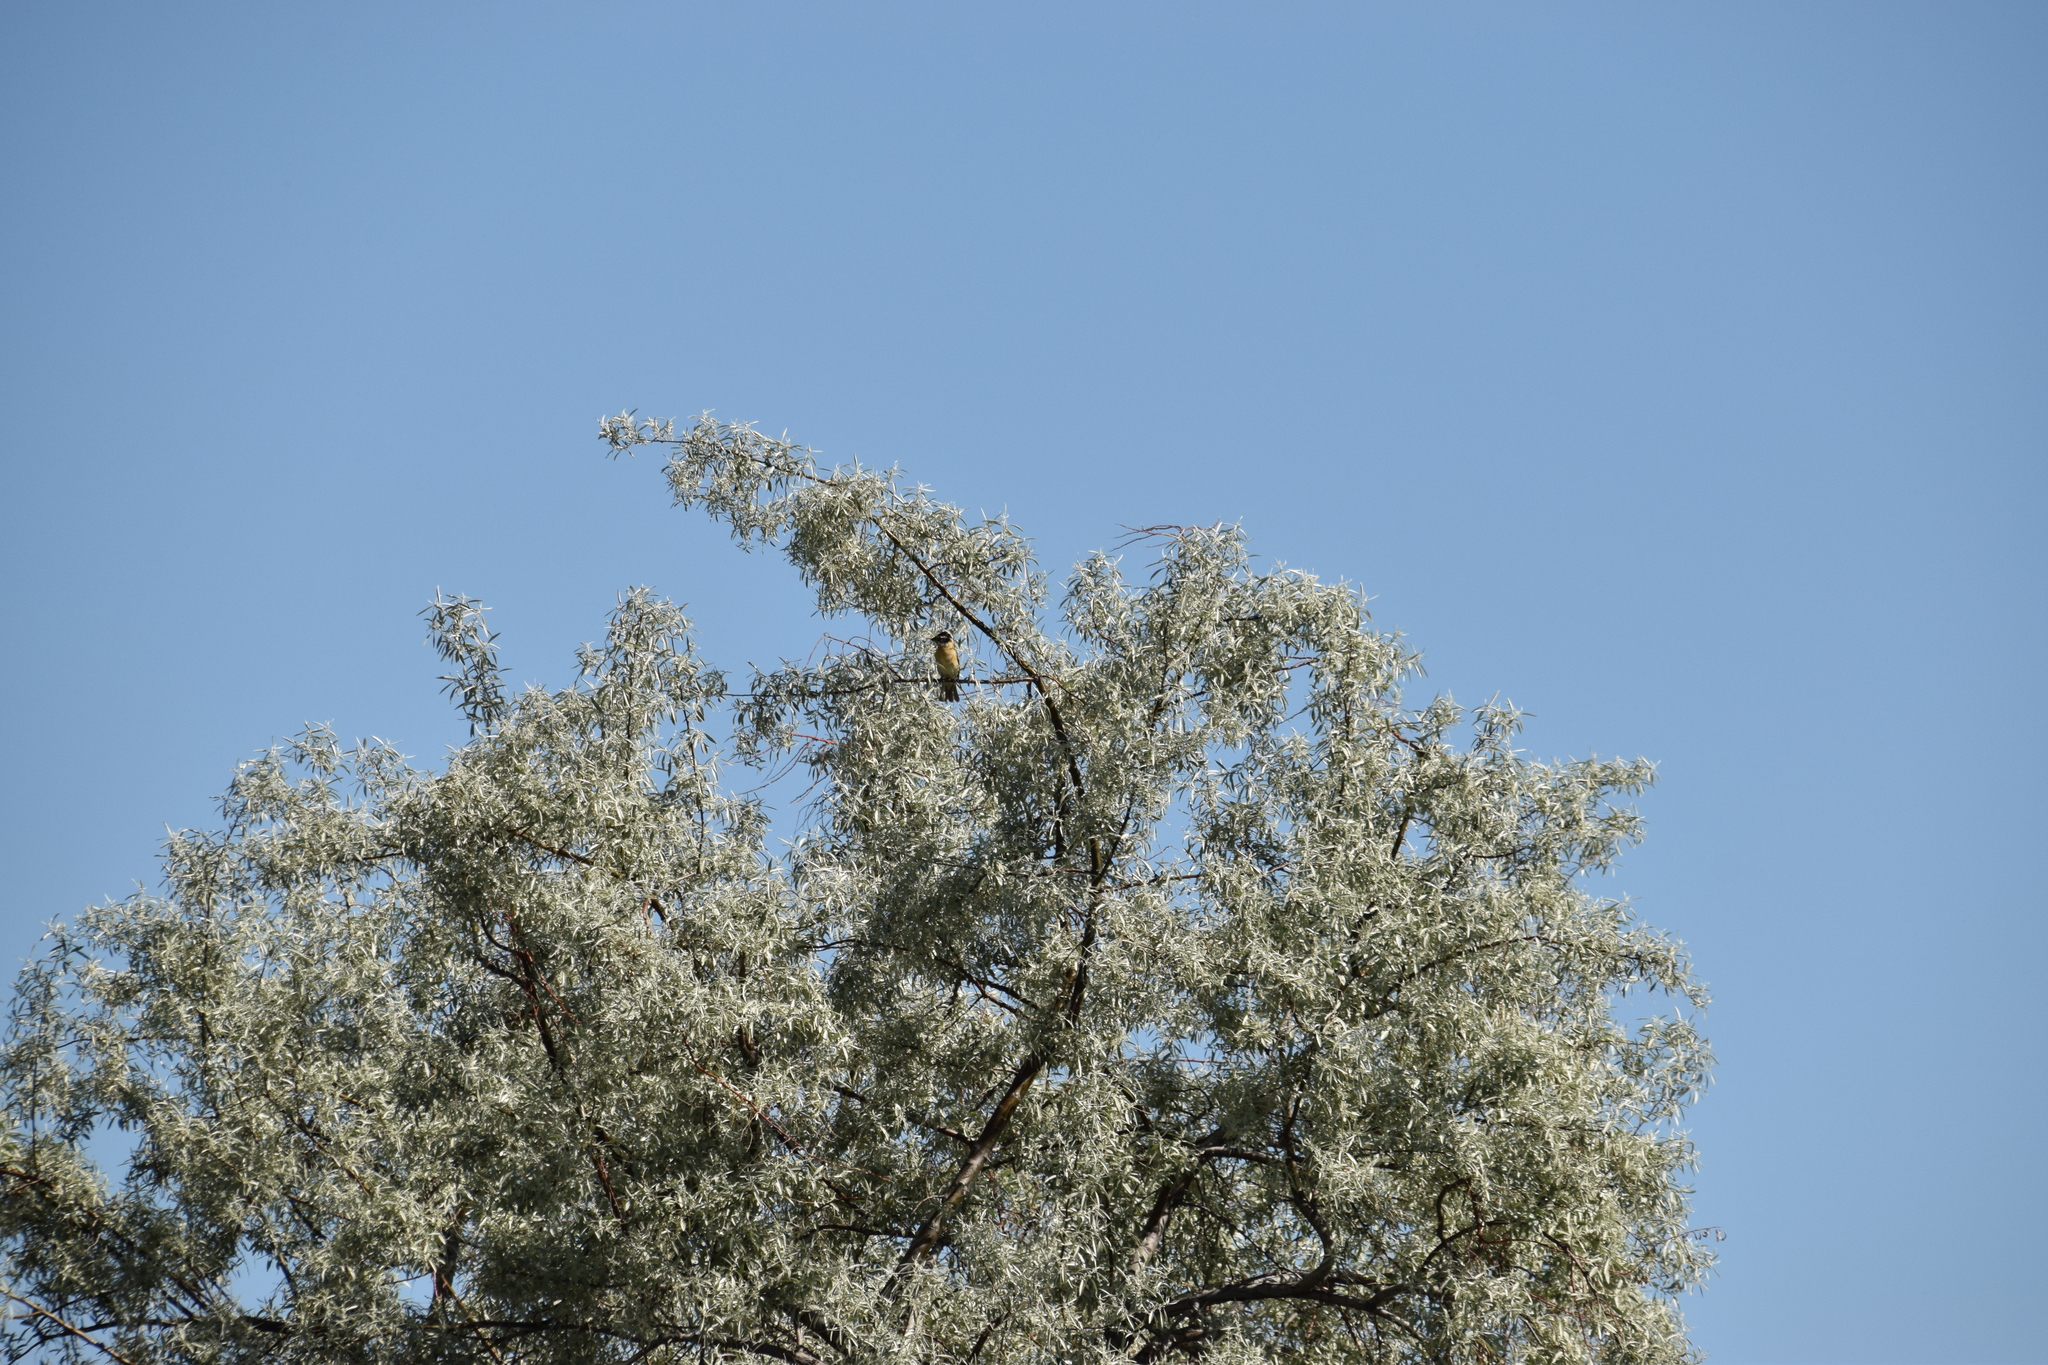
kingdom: Animalia
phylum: Chordata
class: Aves
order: Passeriformes
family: Cardinalidae
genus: Pheucticus
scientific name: Pheucticus melanocephalus
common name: Black-headed grosbeak
